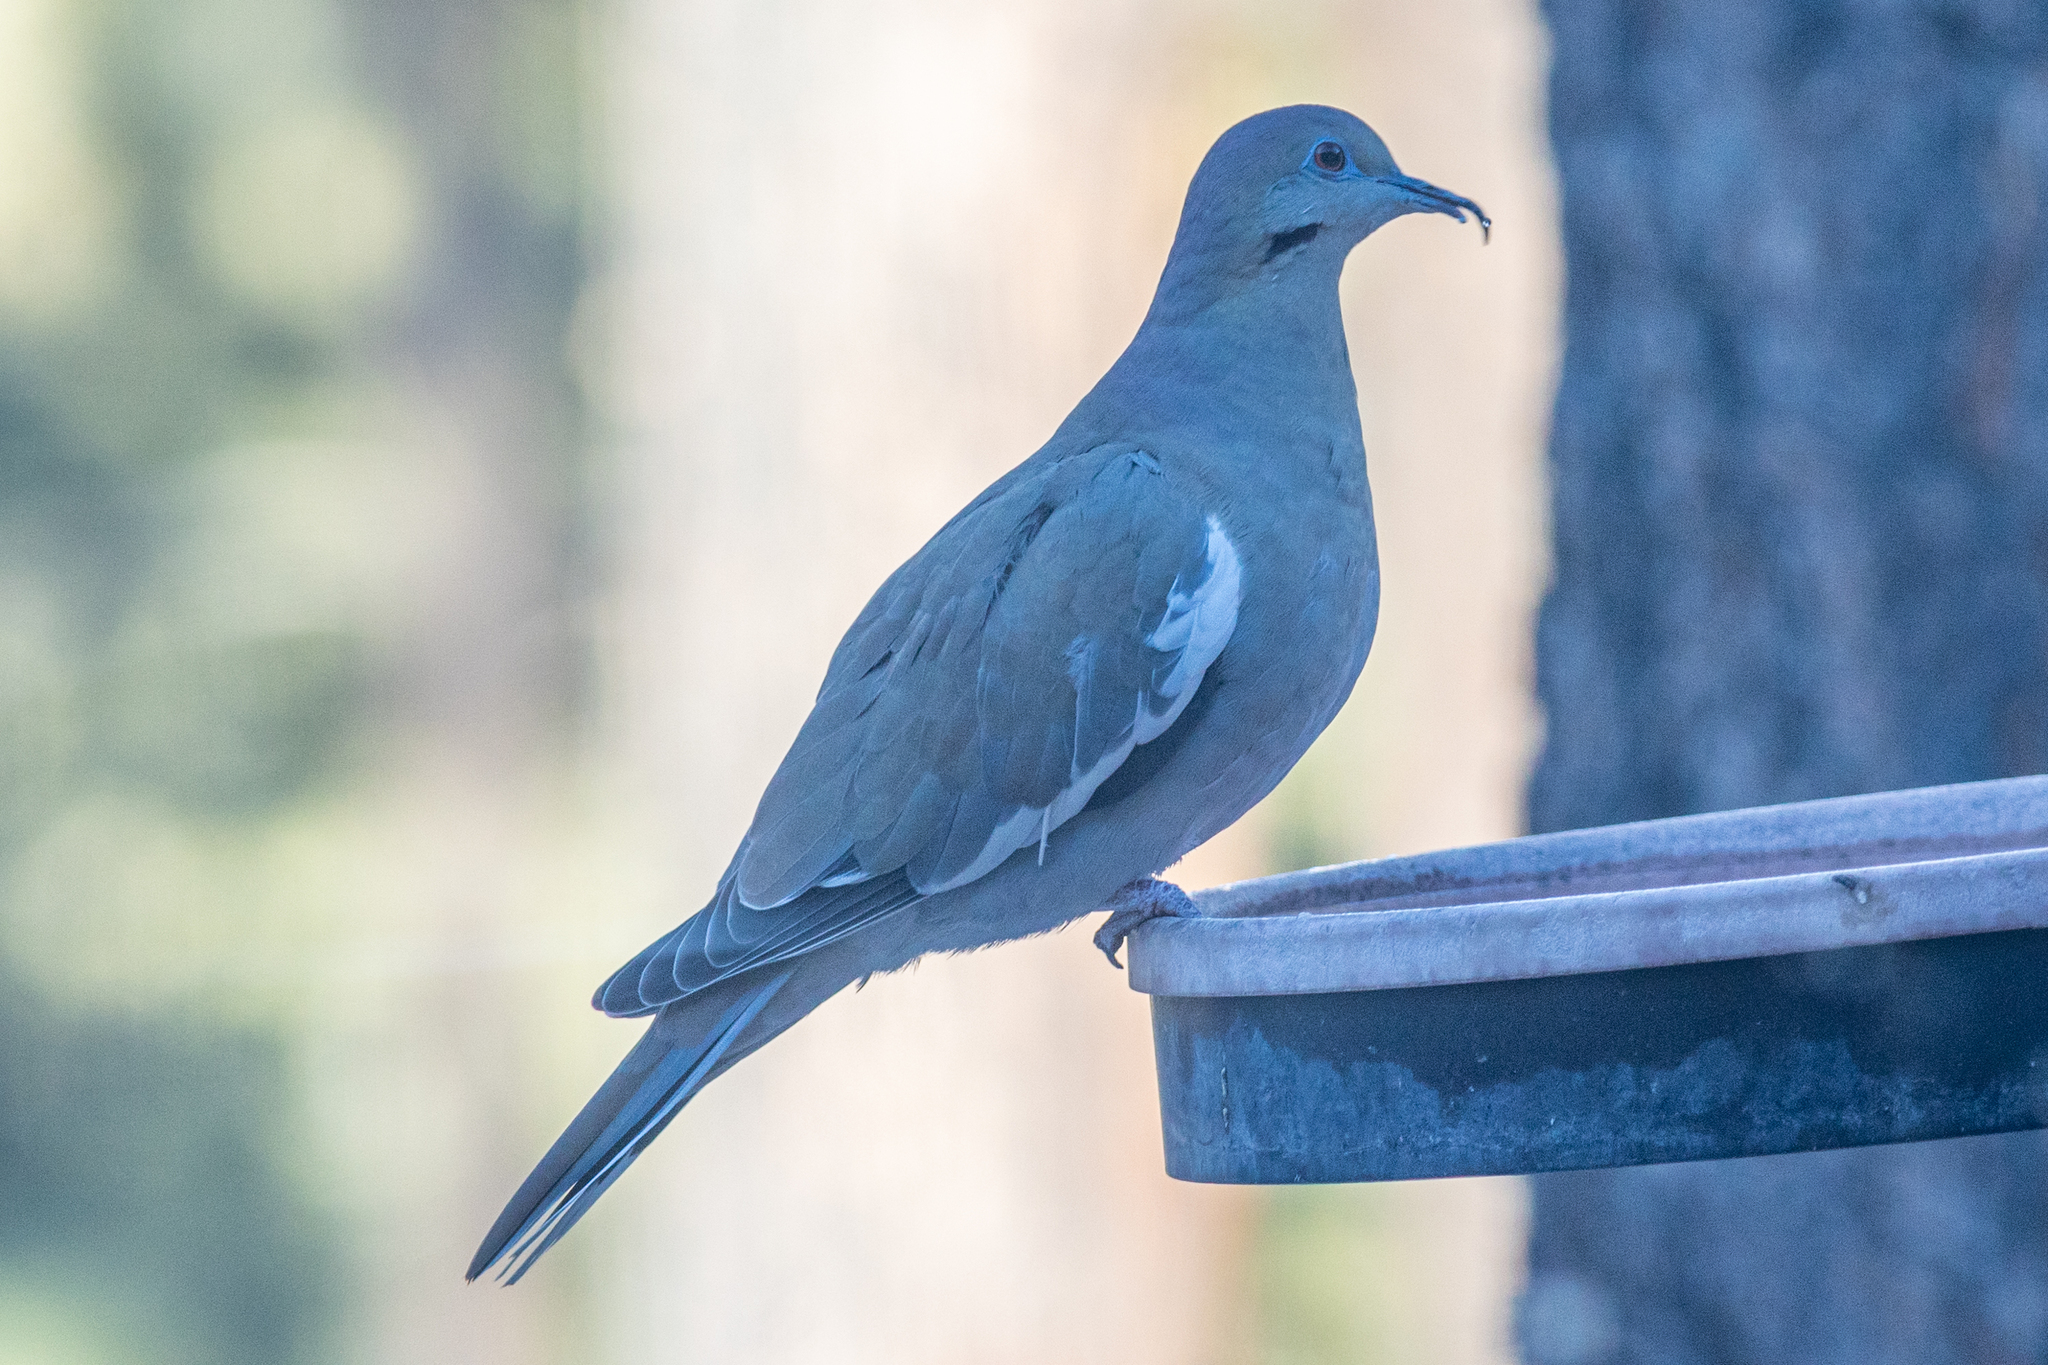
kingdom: Animalia
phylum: Chordata
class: Aves
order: Columbiformes
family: Columbidae
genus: Zenaida
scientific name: Zenaida asiatica
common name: White-winged dove
